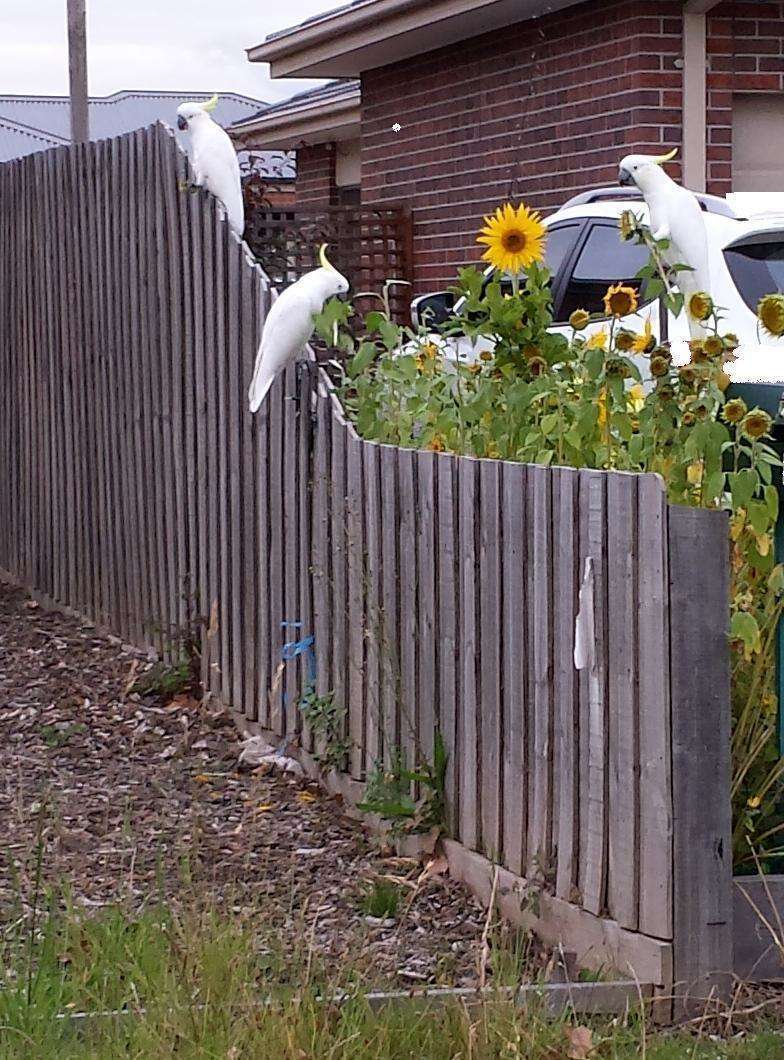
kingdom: Animalia
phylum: Chordata
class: Aves
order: Psittaciformes
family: Psittacidae
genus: Cacatua
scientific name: Cacatua galerita
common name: Sulphur-crested cockatoo
